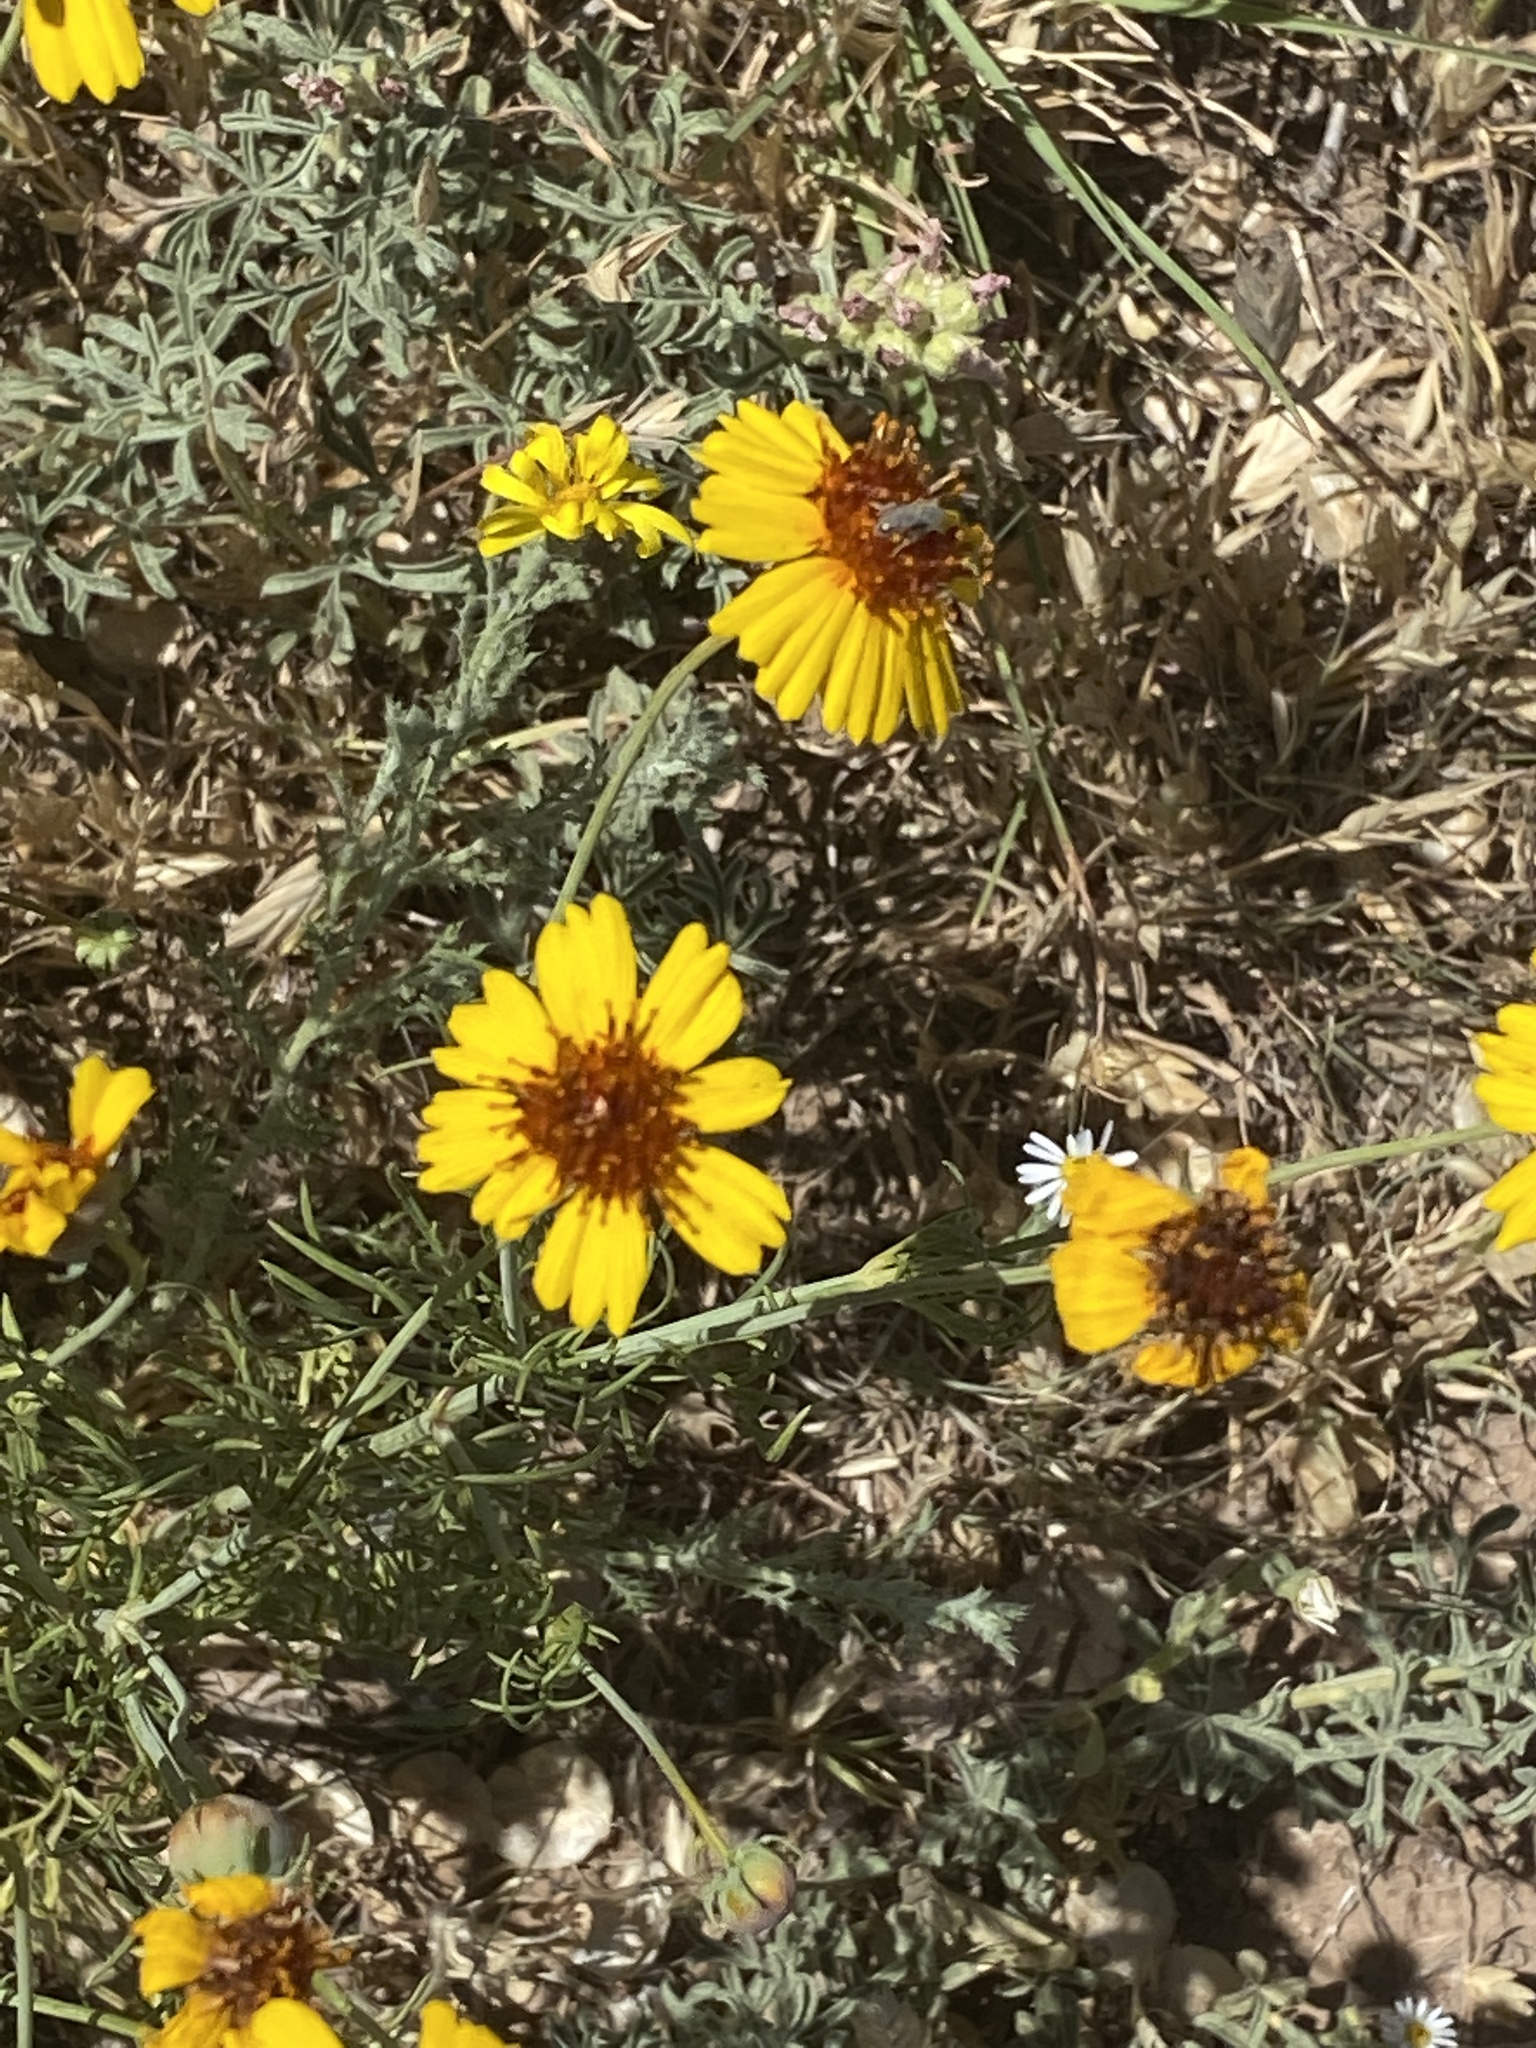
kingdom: Plantae
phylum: Tracheophyta
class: Magnoliopsida
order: Asterales
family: Asteraceae
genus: Thelesperma
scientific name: Thelesperma filifolium
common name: Stiff greenthread
